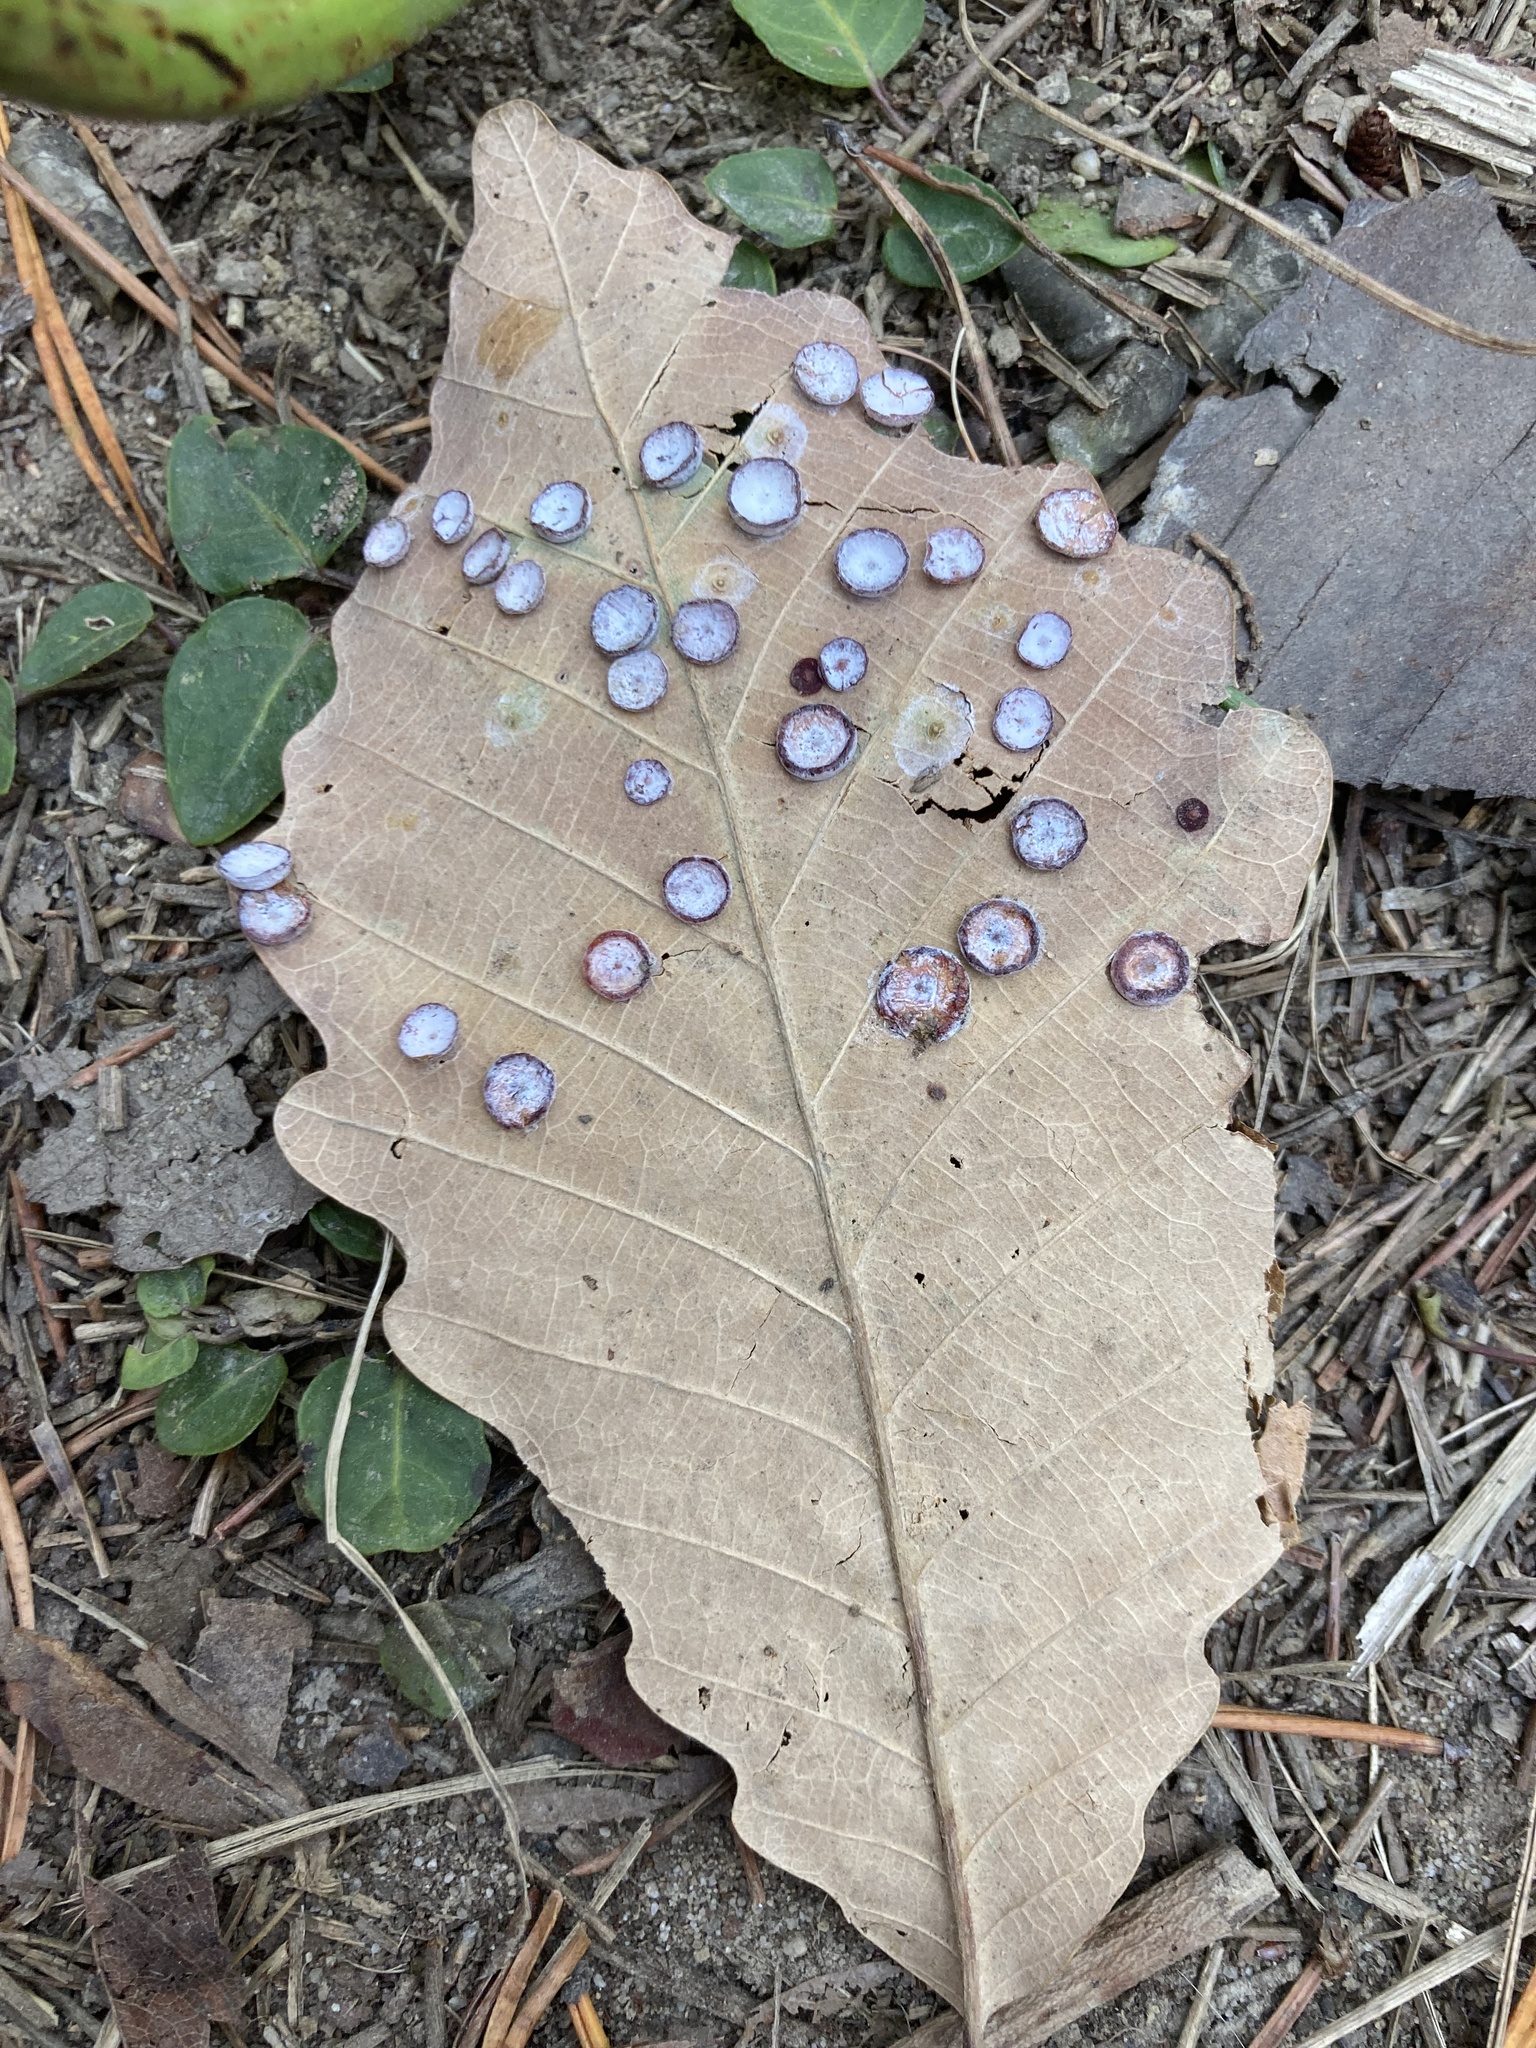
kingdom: Animalia
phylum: Arthropoda
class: Insecta
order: Hymenoptera
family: Cynipidae
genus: Phylloteras
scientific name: Phylloteras poculum
